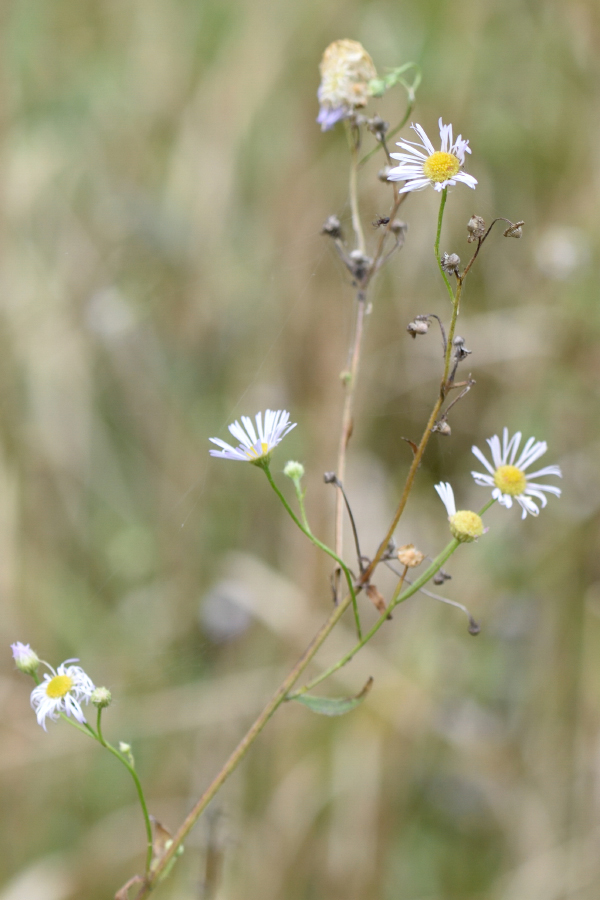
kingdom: Plantae
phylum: Tracheophyta
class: Magnoliopsida
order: Asterales
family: Asteraceae
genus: Erigeron
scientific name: Erigeron annuus
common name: Tall fleabane
